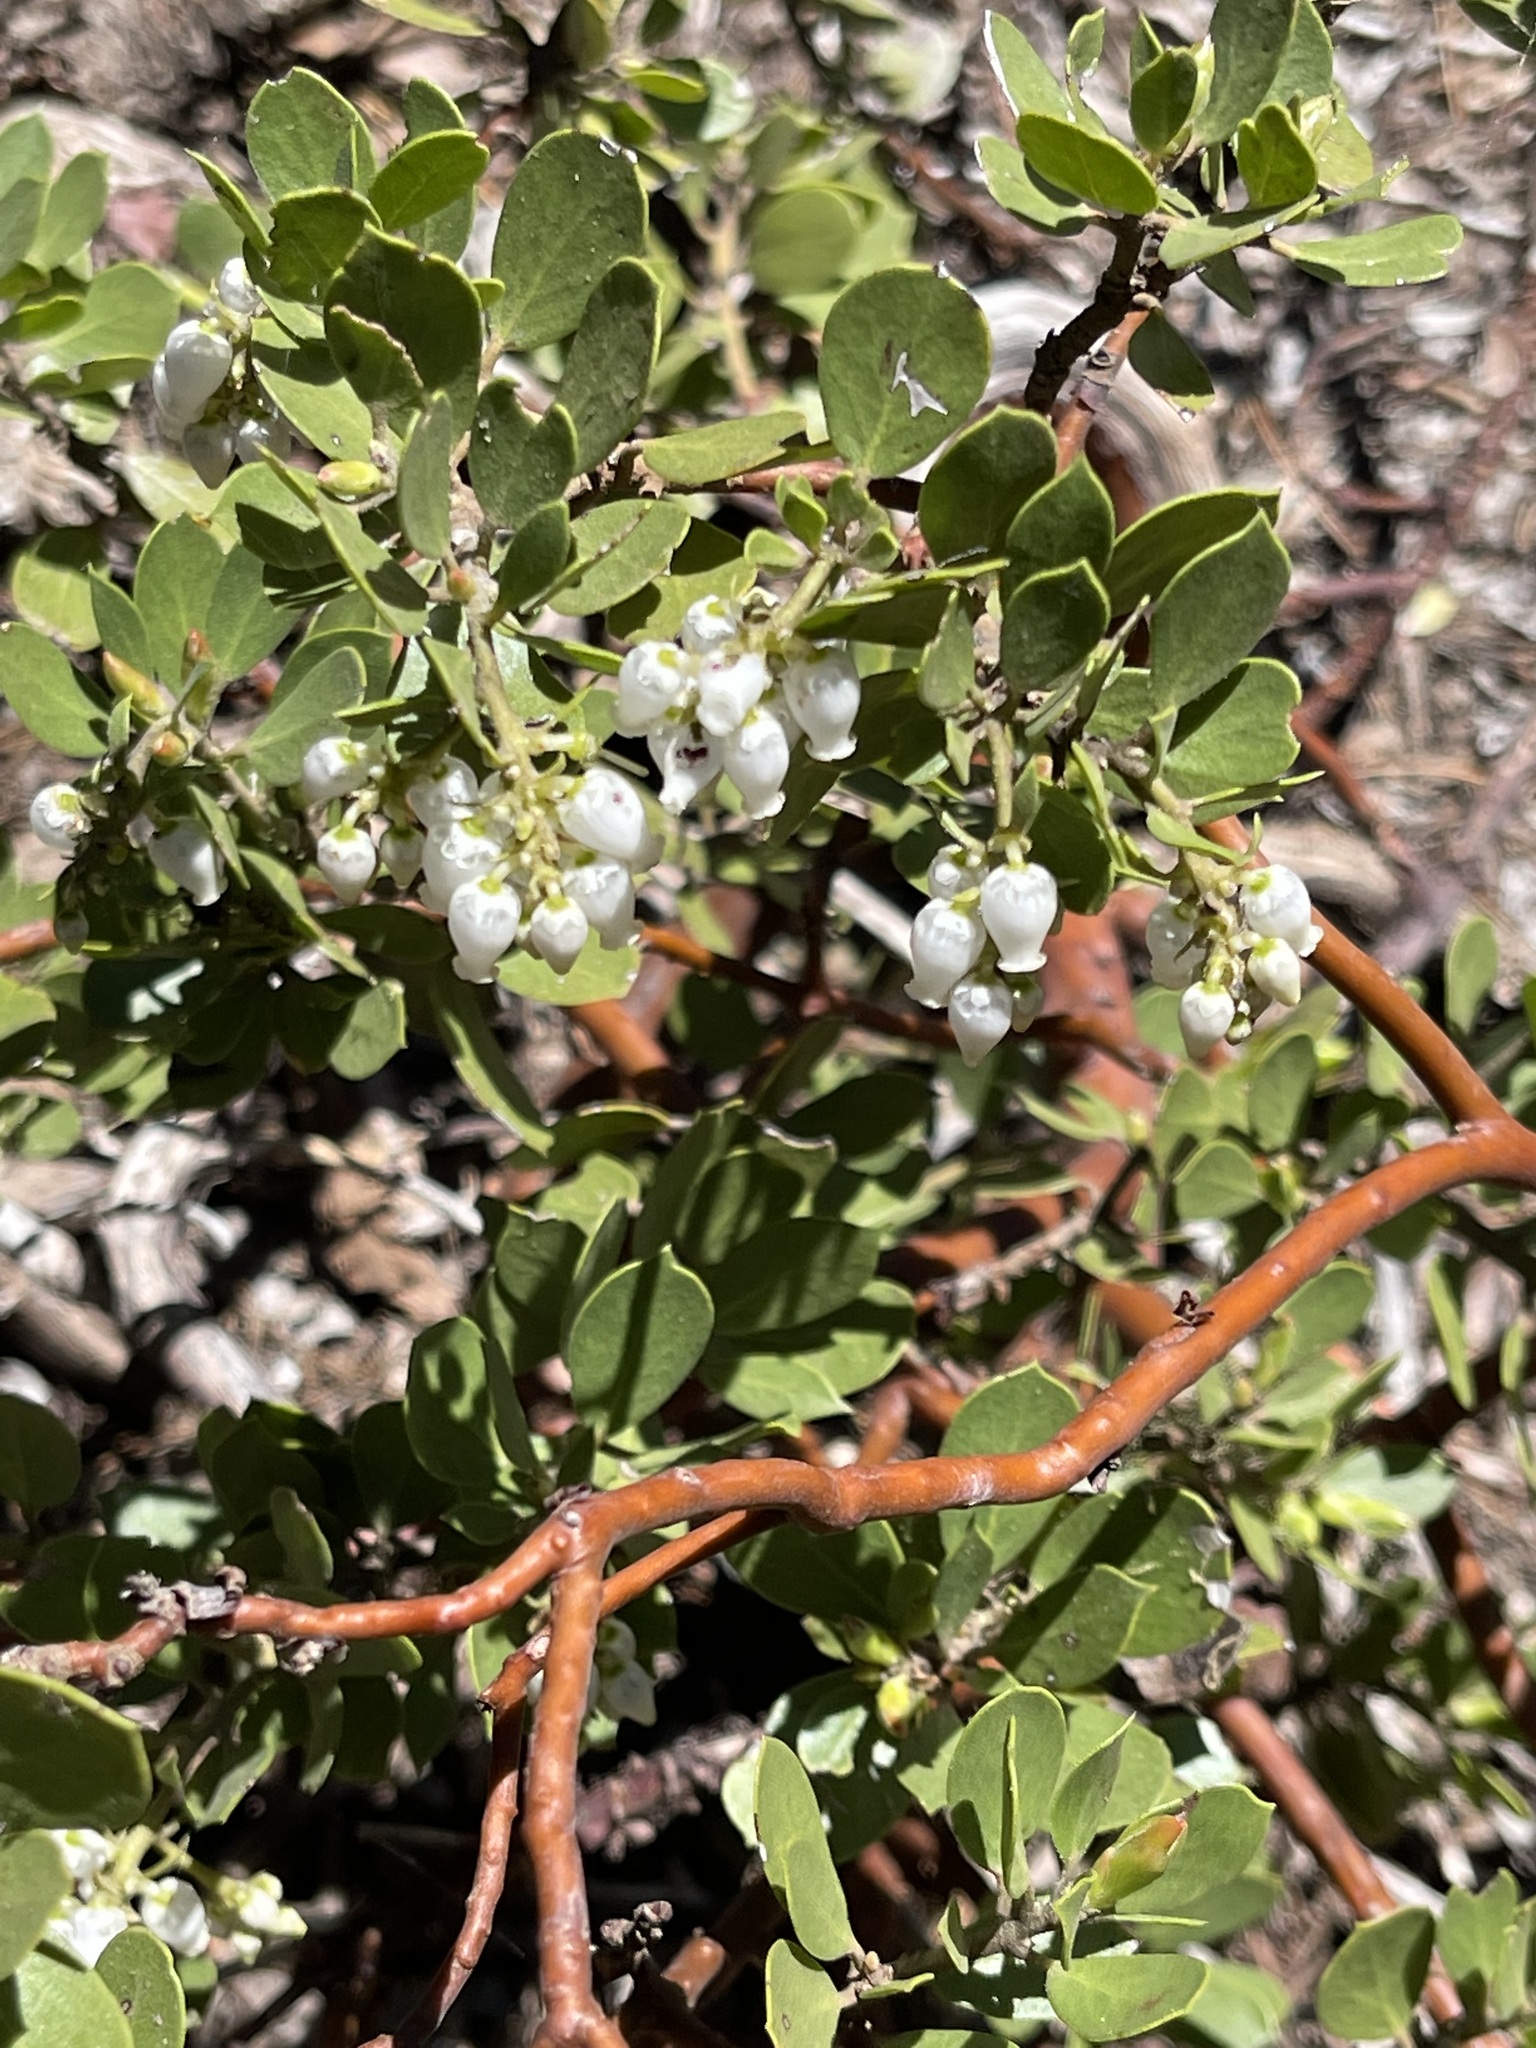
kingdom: Plantae
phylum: Tracheophyta
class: Magnoliopsida
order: Ericales
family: Ericaceae
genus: Arctostaphylos
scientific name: Arctostaphylos nevadensis
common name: Pinemat manzanita
